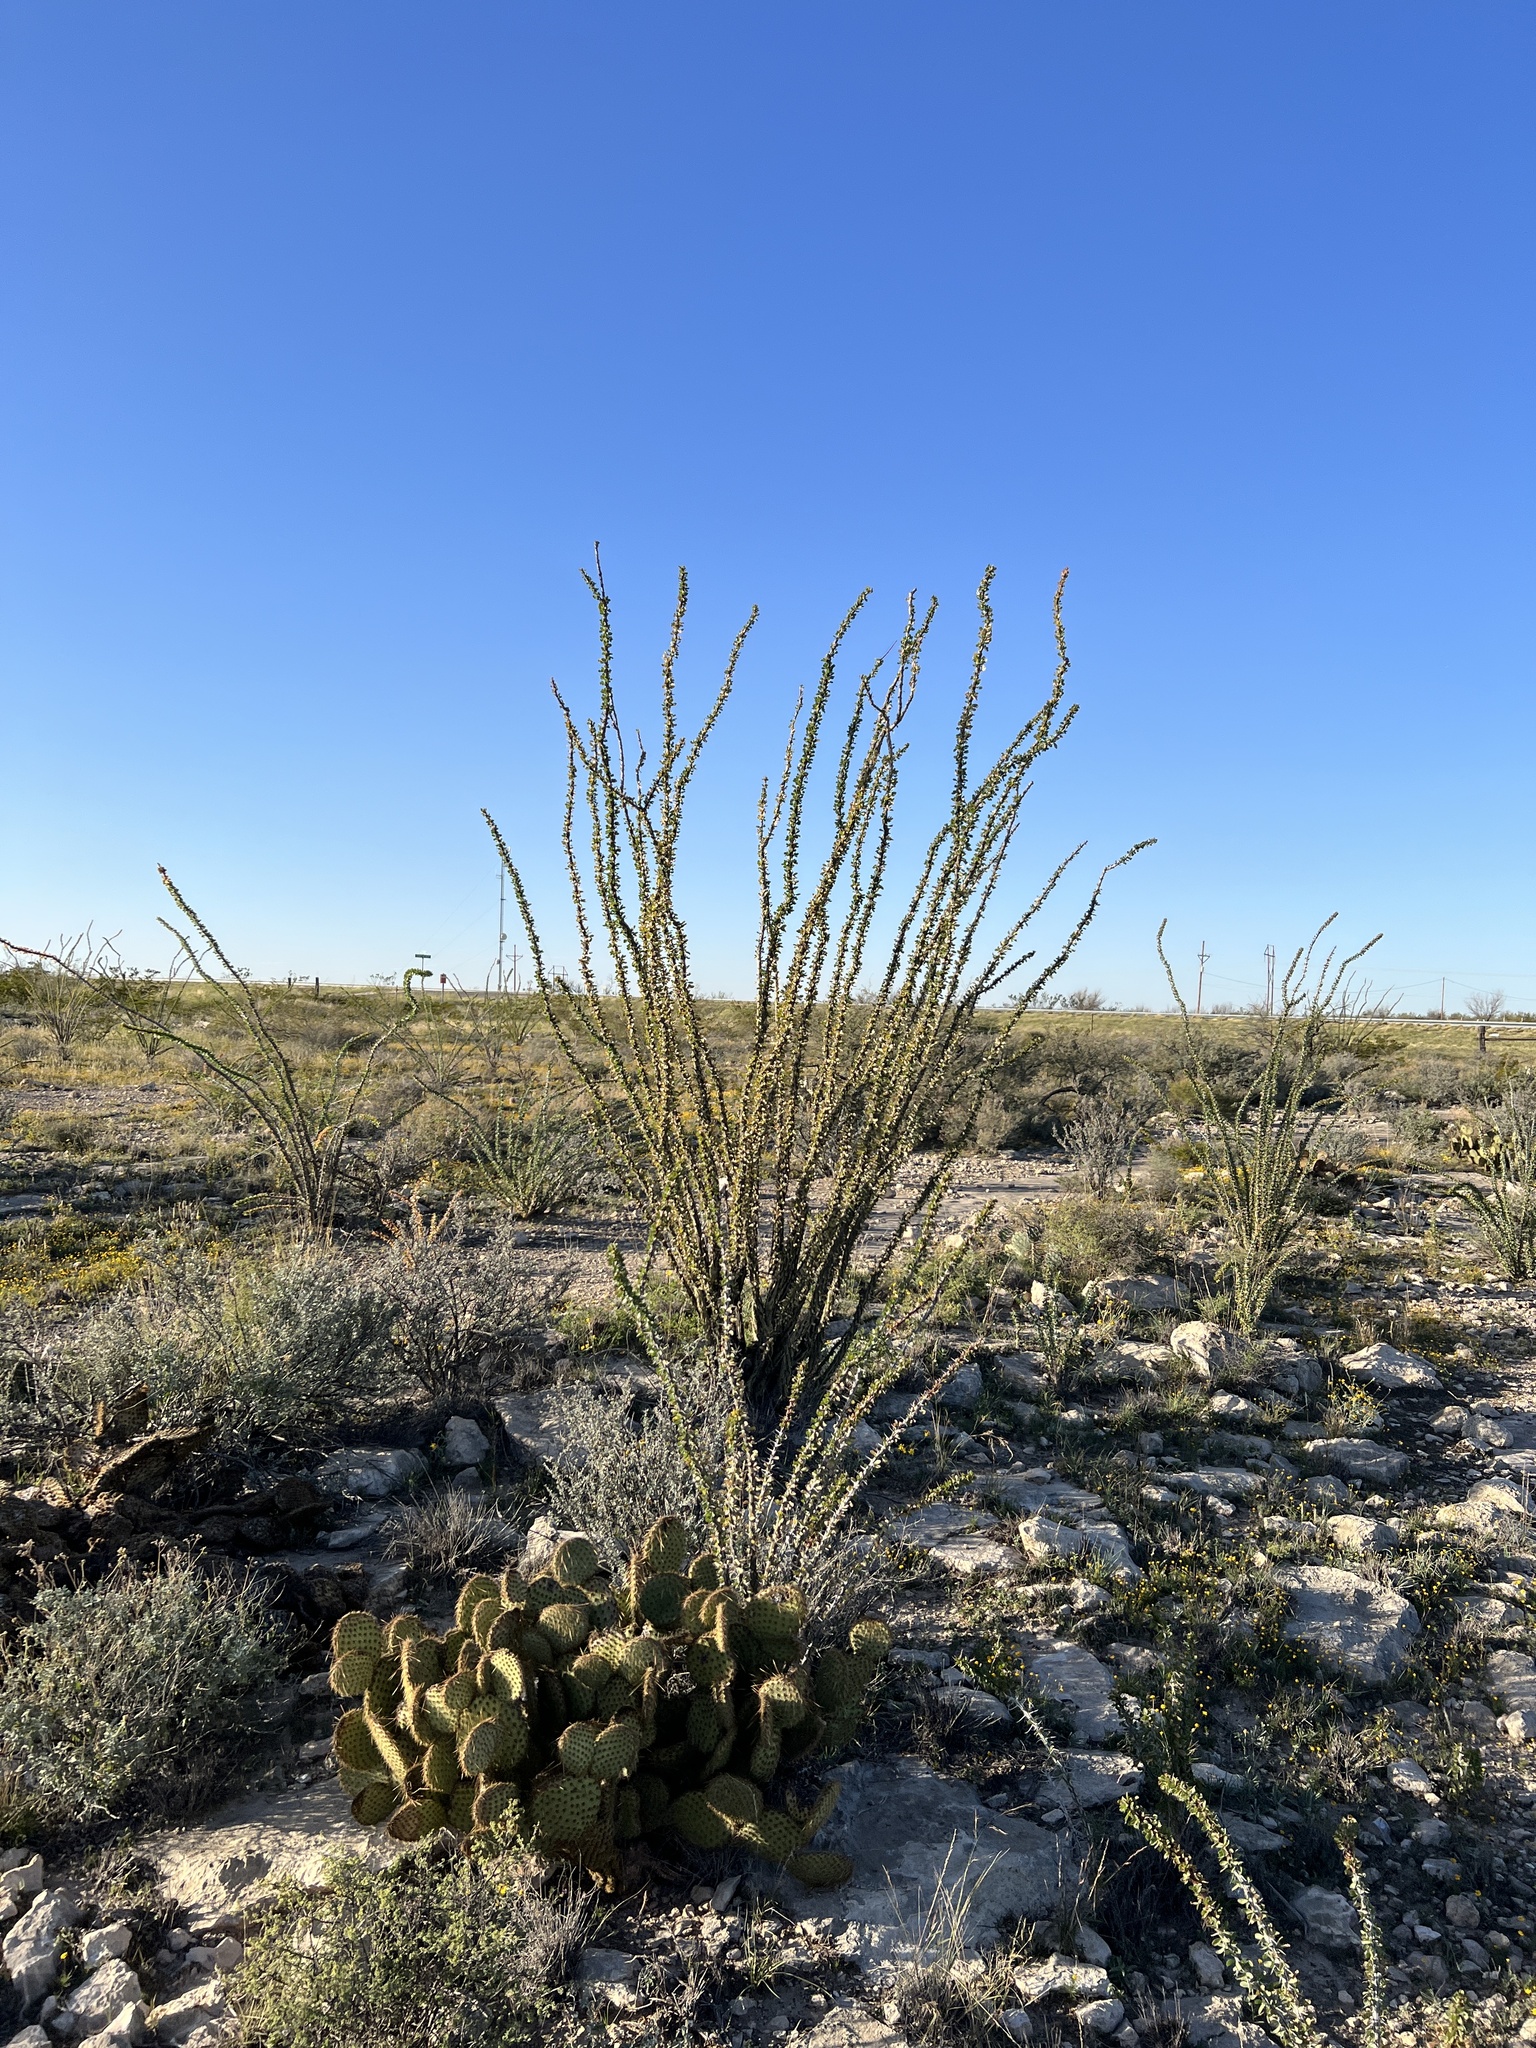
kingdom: Plantae
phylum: Tracheophyta
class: Magnoliopsida
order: Ericales
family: Fouquieriaceae
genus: Fouquieria
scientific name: Fouquieria splendens
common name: Vine-cactus
